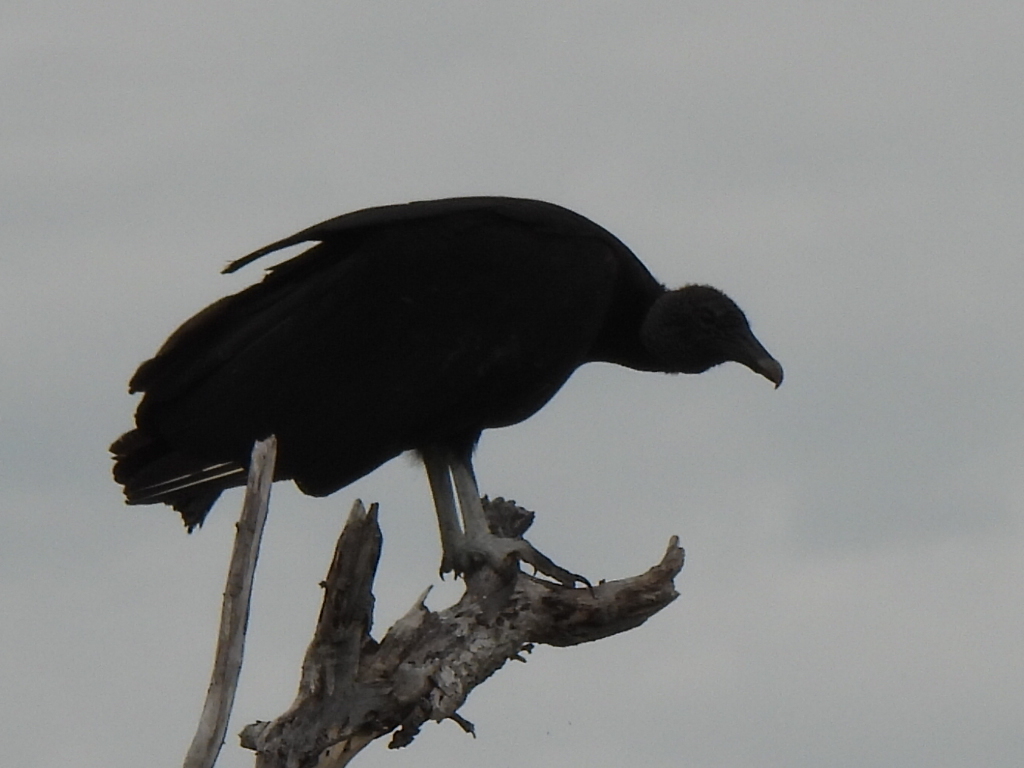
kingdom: Animalia
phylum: Chordata
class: Aves
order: Accipitriformes
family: Cathartidae
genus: Coragyps
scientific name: Coragyps atratus
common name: Black vulture
